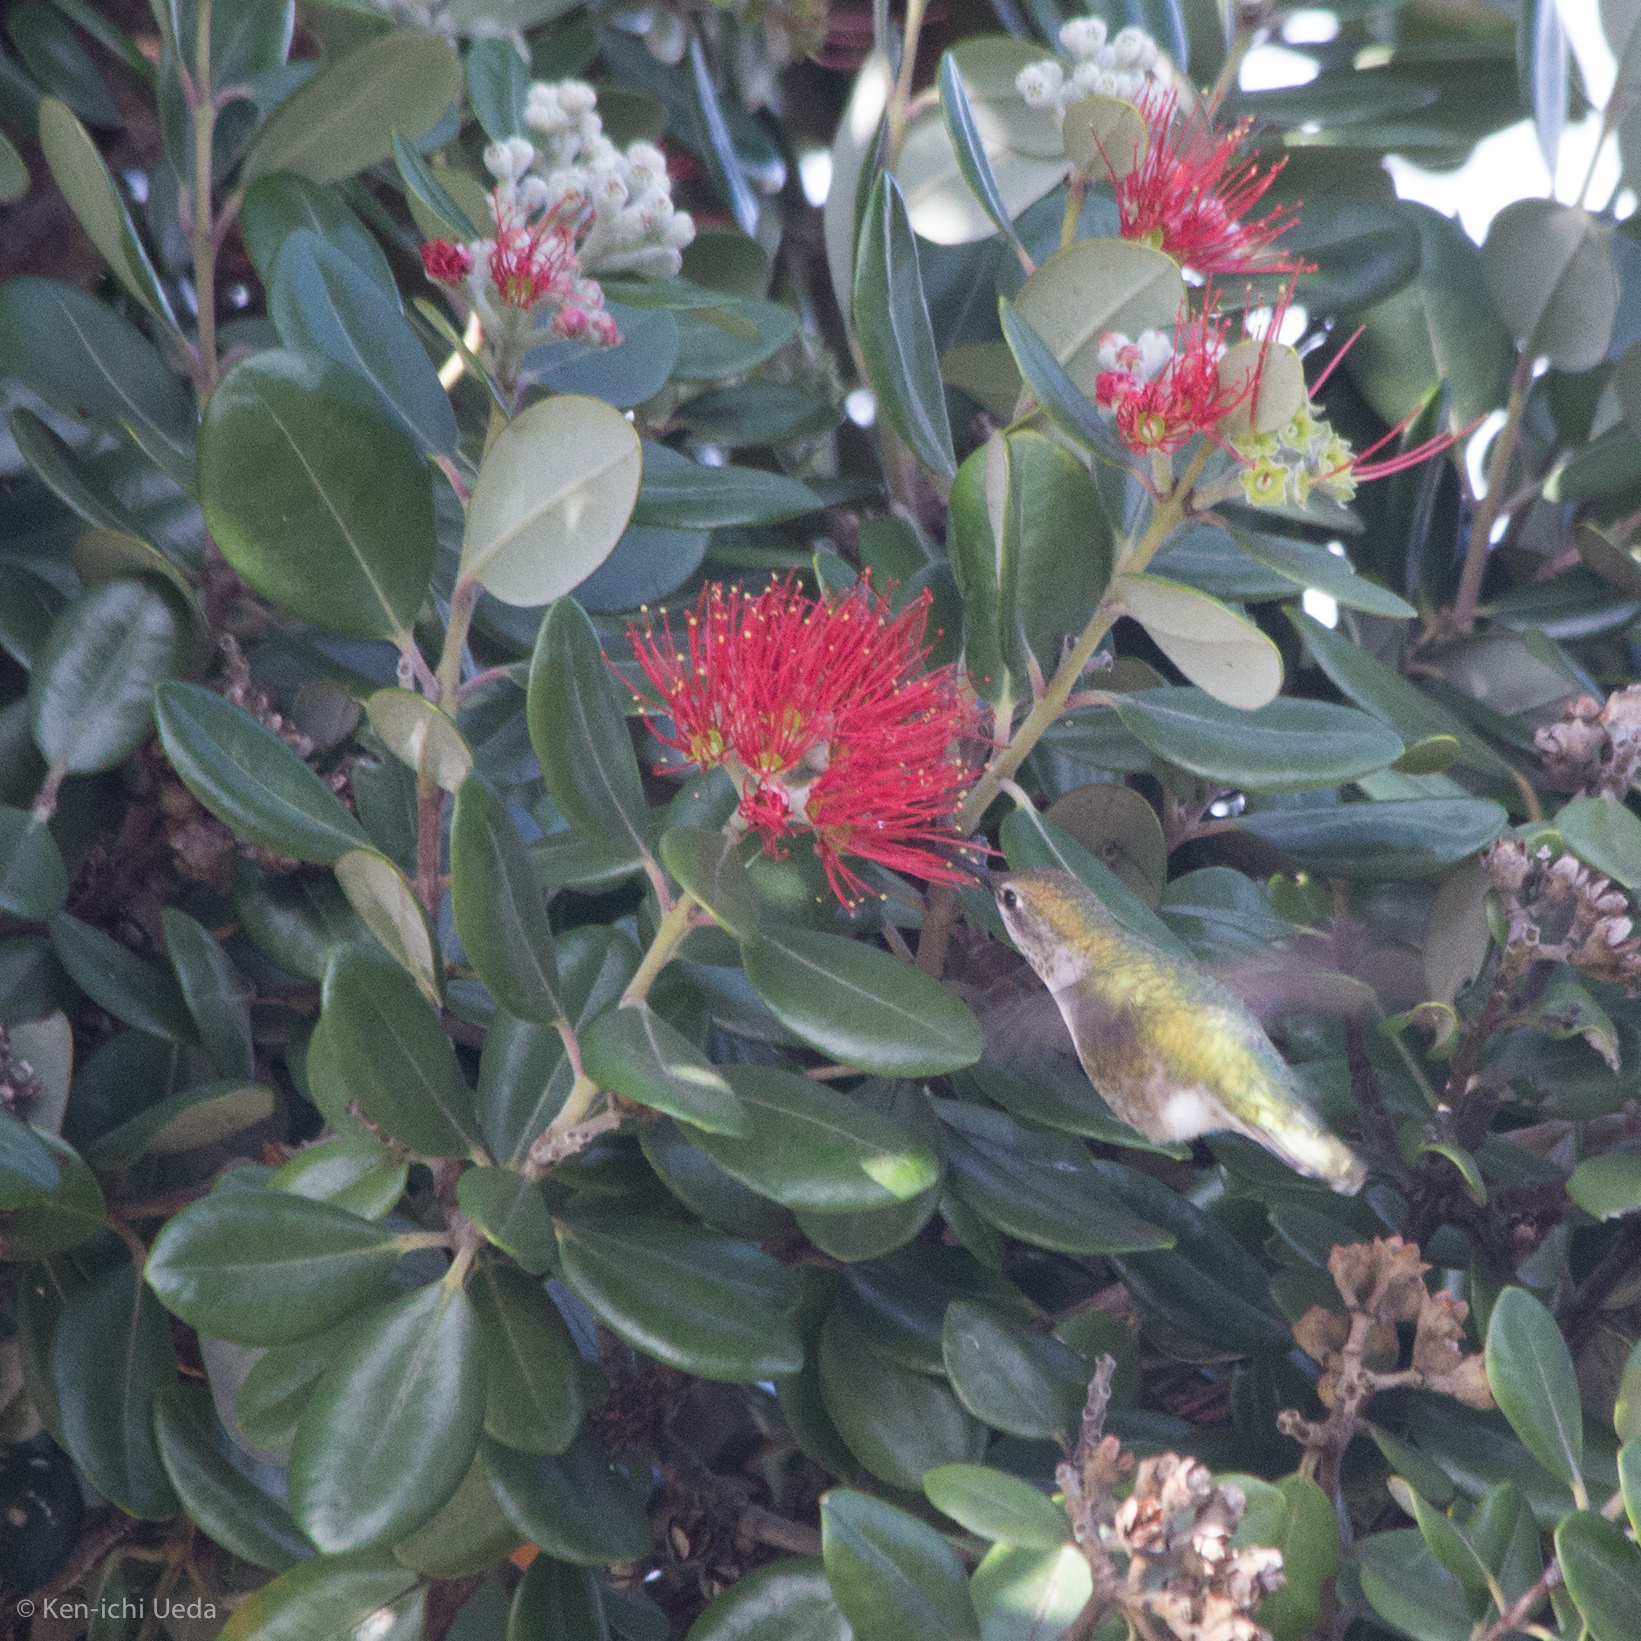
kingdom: Animalia
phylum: Chordata
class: Aves
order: Apodiformes
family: Trochilidae
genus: Calypte
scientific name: Calypte anna
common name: Anna's hummingbird
